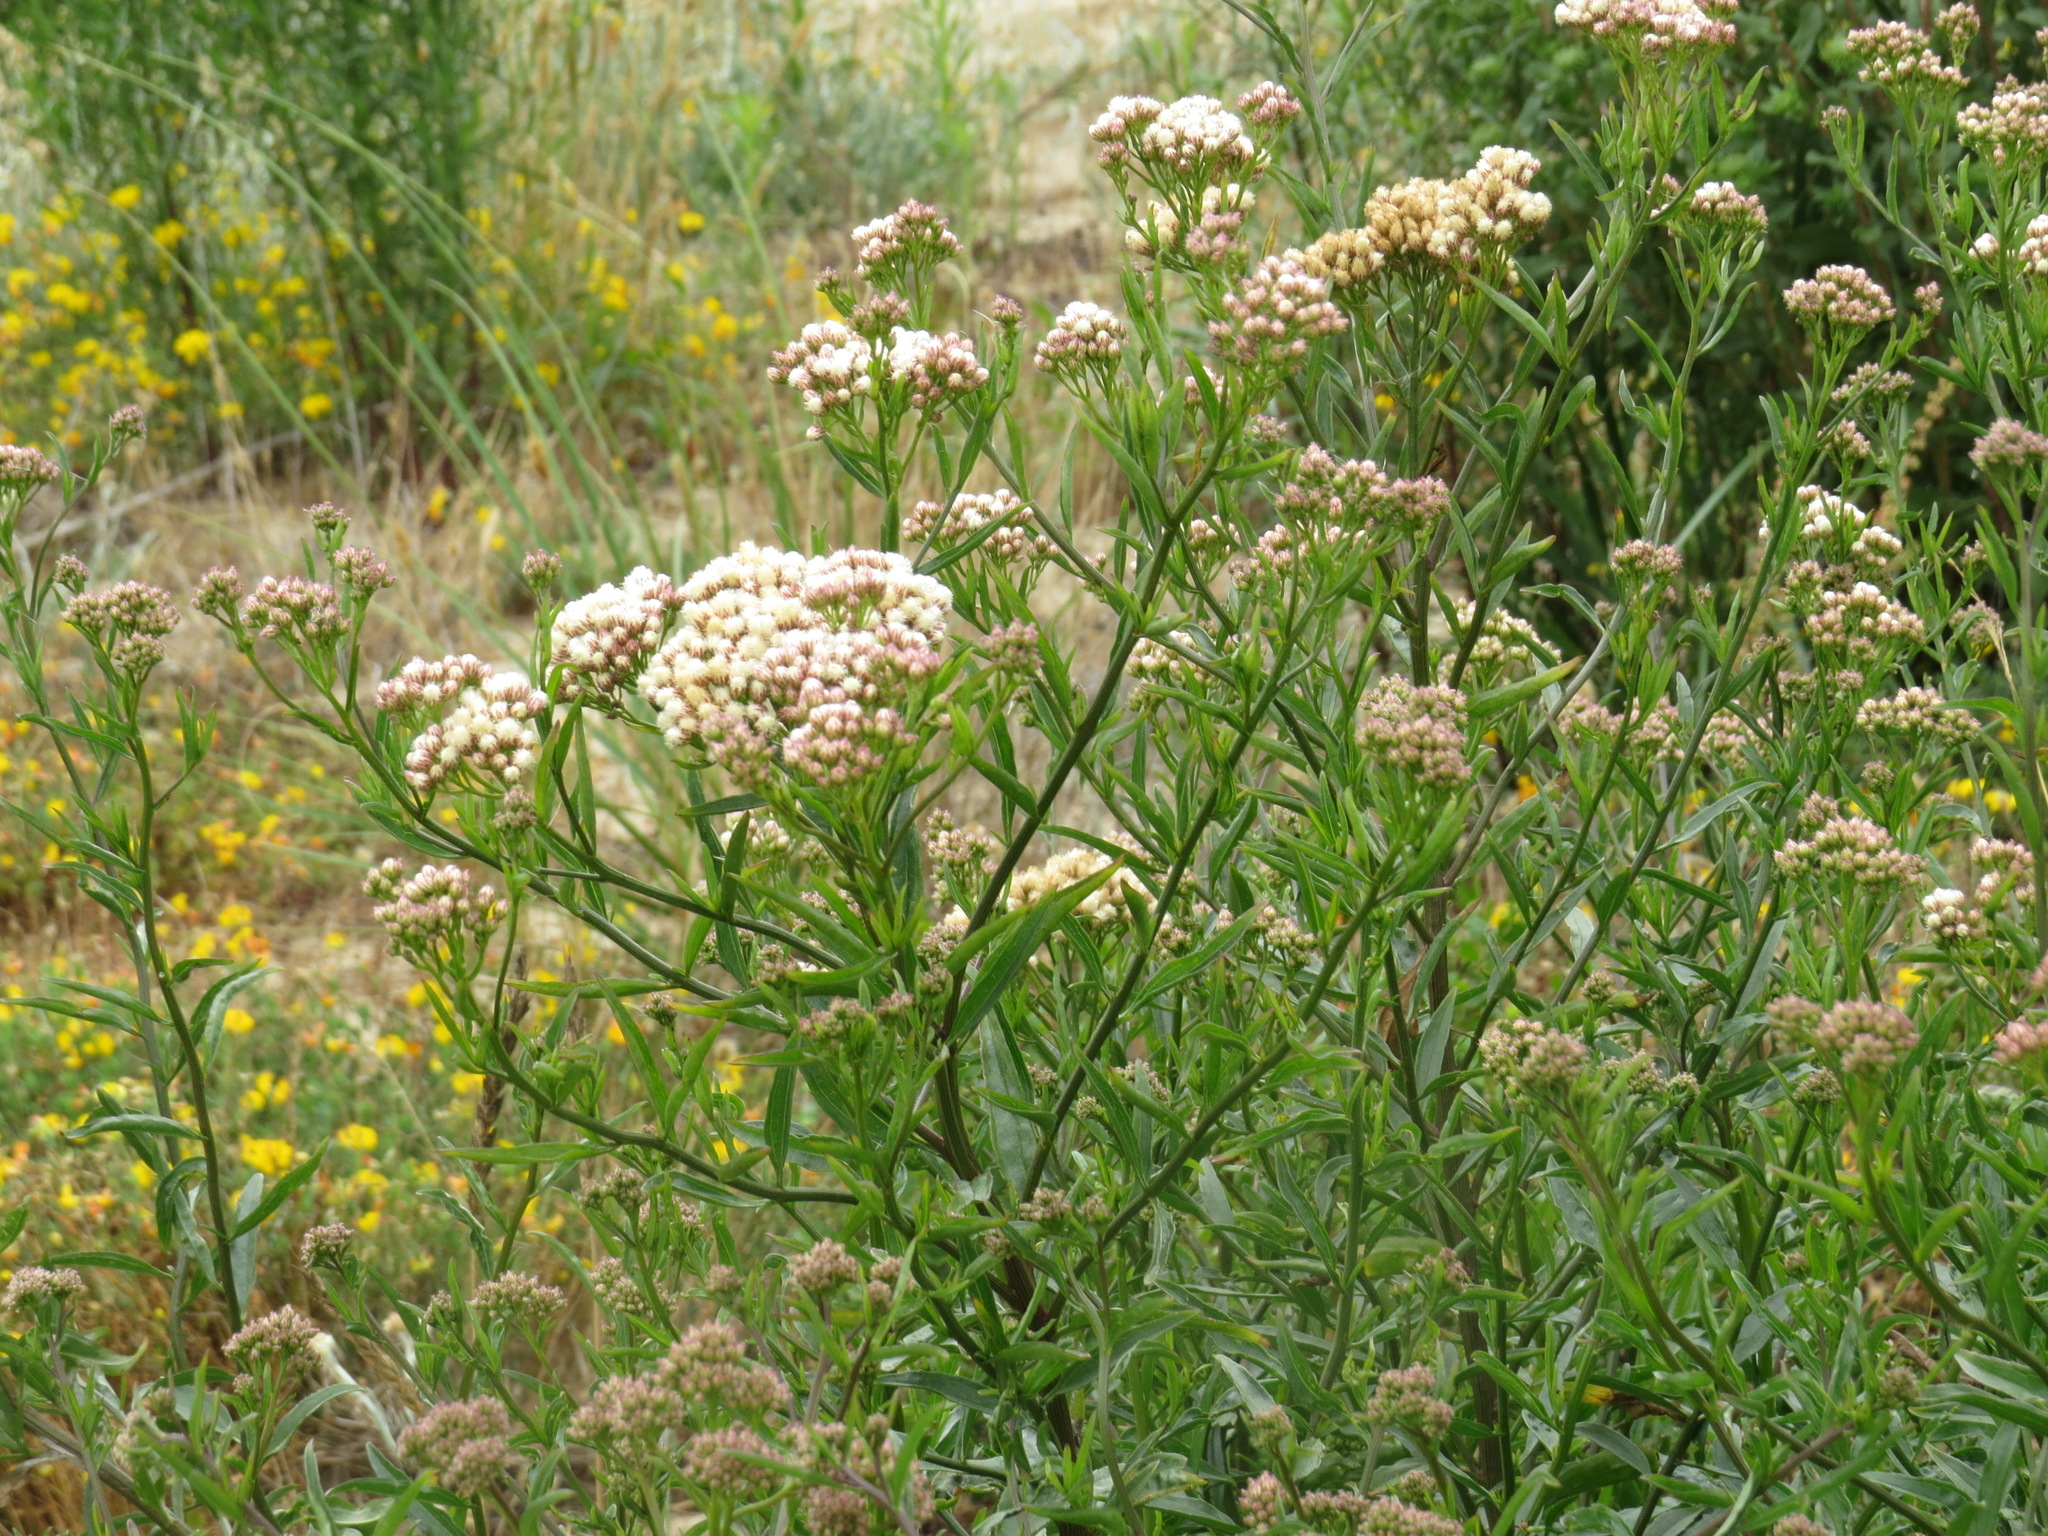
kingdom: Animalia
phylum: Arthropoda
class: Insecta
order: Diptera
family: Conopidae
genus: Physocephala
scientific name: Physocephala burgessi
